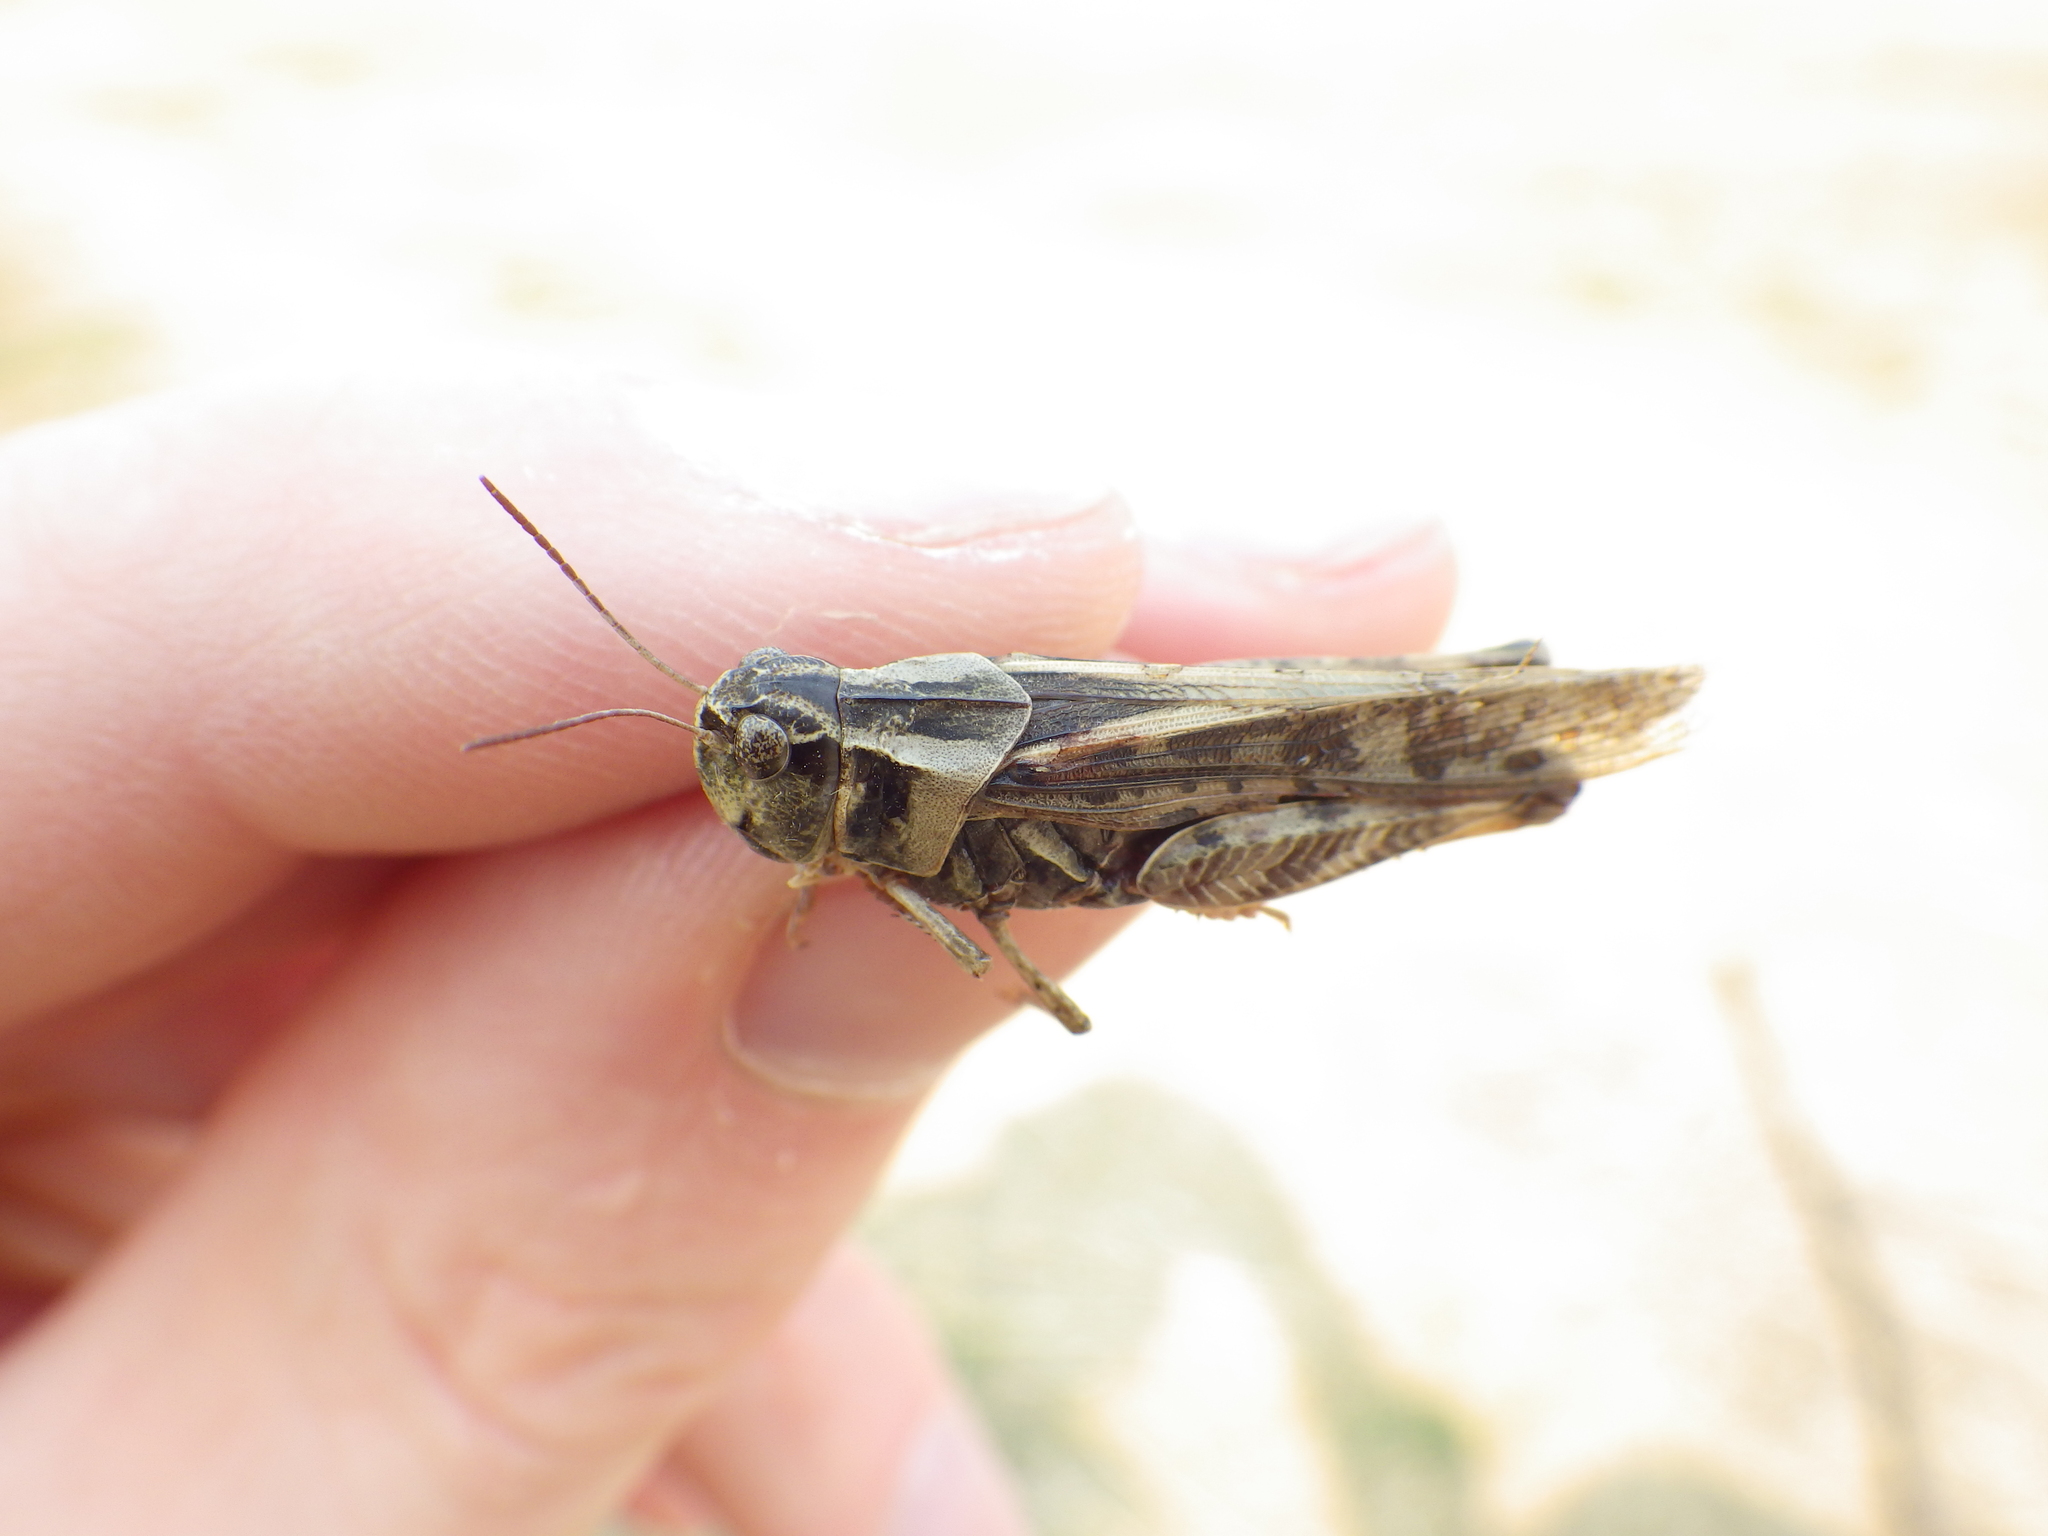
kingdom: Animalia
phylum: Arthropoda
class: Insecta
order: Orthoptera
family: Acrididae
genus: Camnula
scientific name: Camnula pellucida
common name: Clear-winged grasshopper
